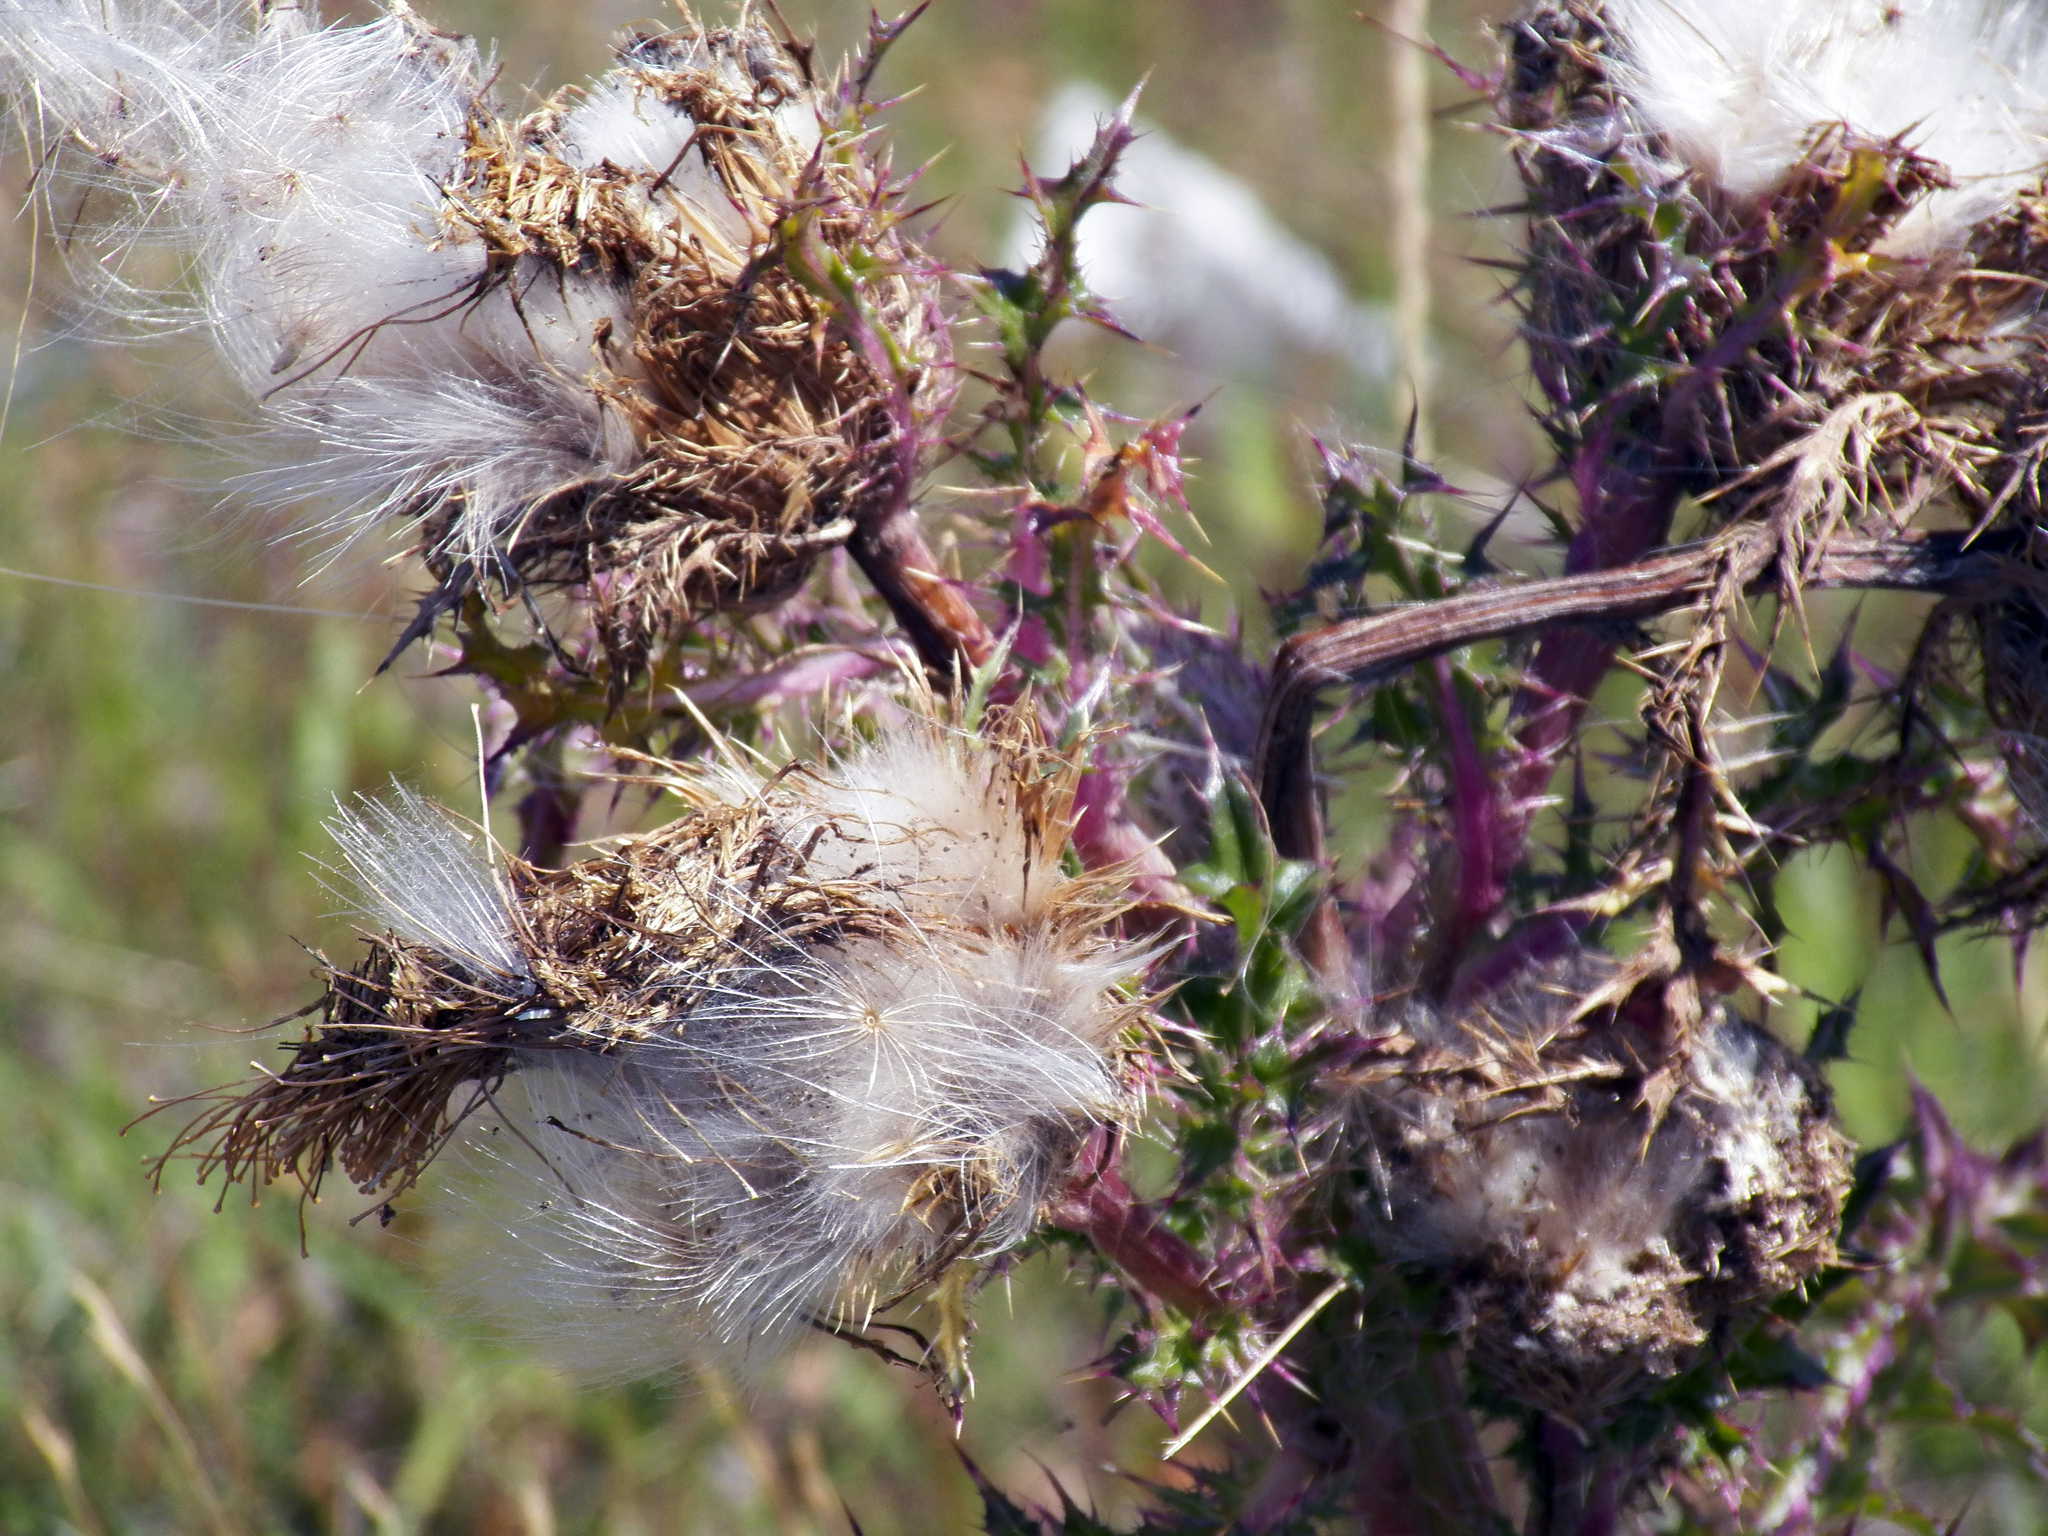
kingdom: Plantae
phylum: Tracheophyta
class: Magnoliopsida
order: Asterales
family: Asteraceae
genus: Cirsium
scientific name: Cirsium horridulum
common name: Bristly thistle
